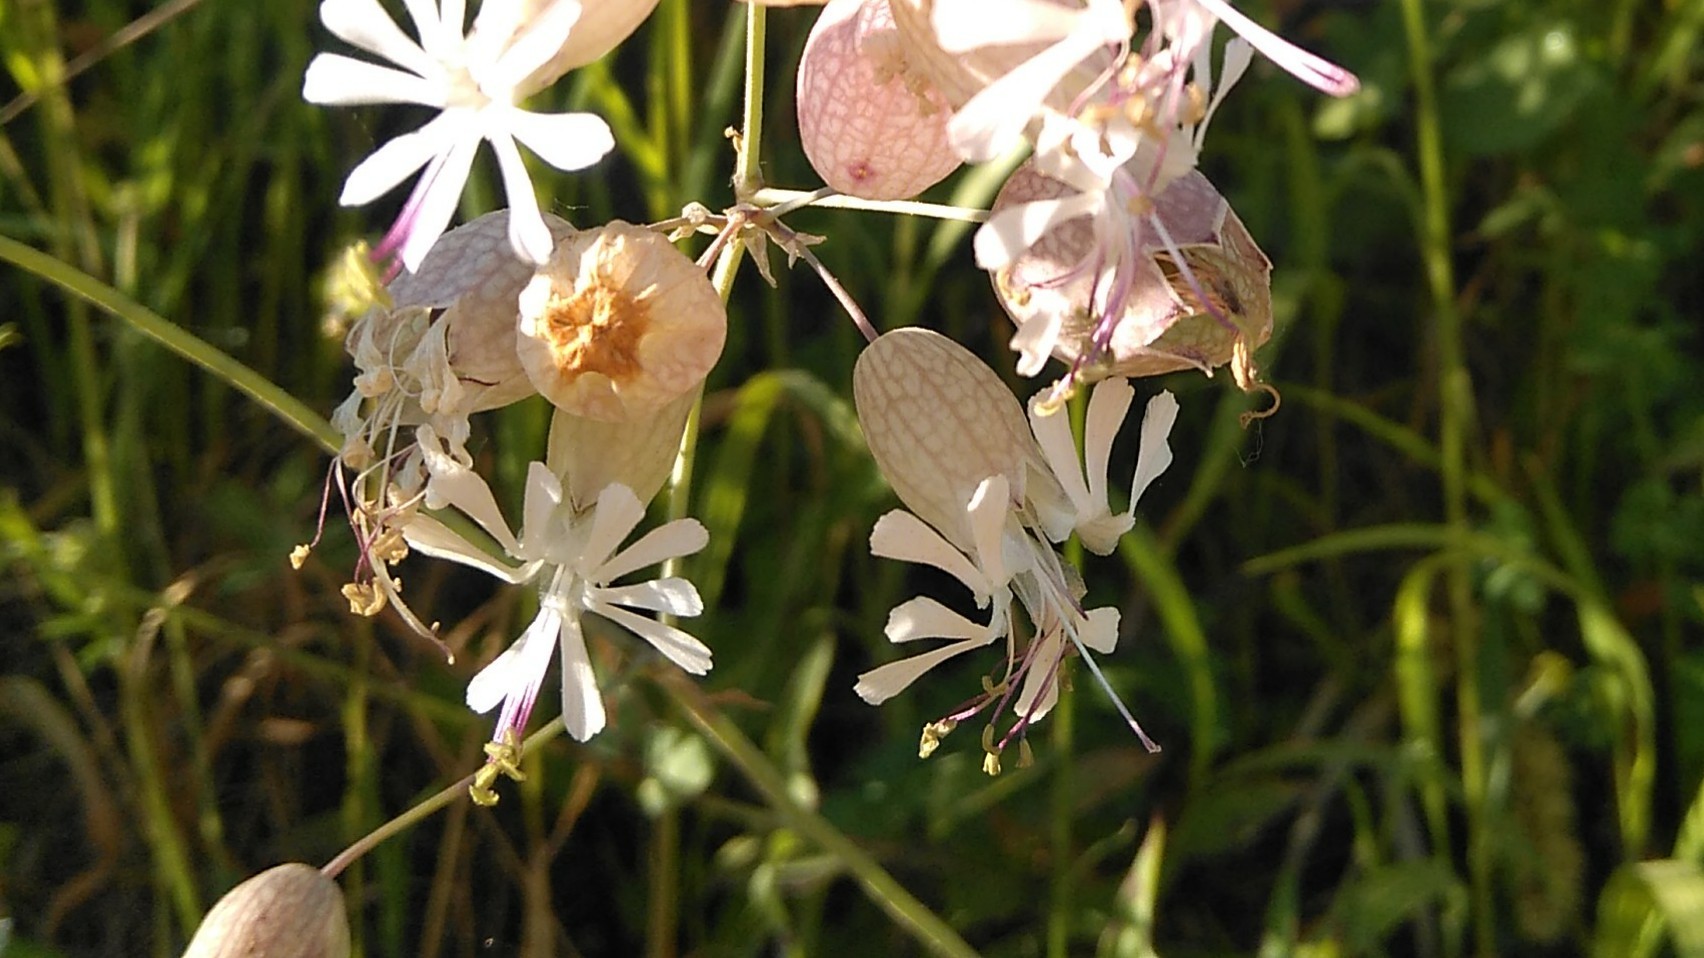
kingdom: Plantae
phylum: Tracheophyta
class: Magnoliopsida
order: Caryophyllales
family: Caryophyllaceae
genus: Silene
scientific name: Silene vulgaris
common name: Bladder campion
